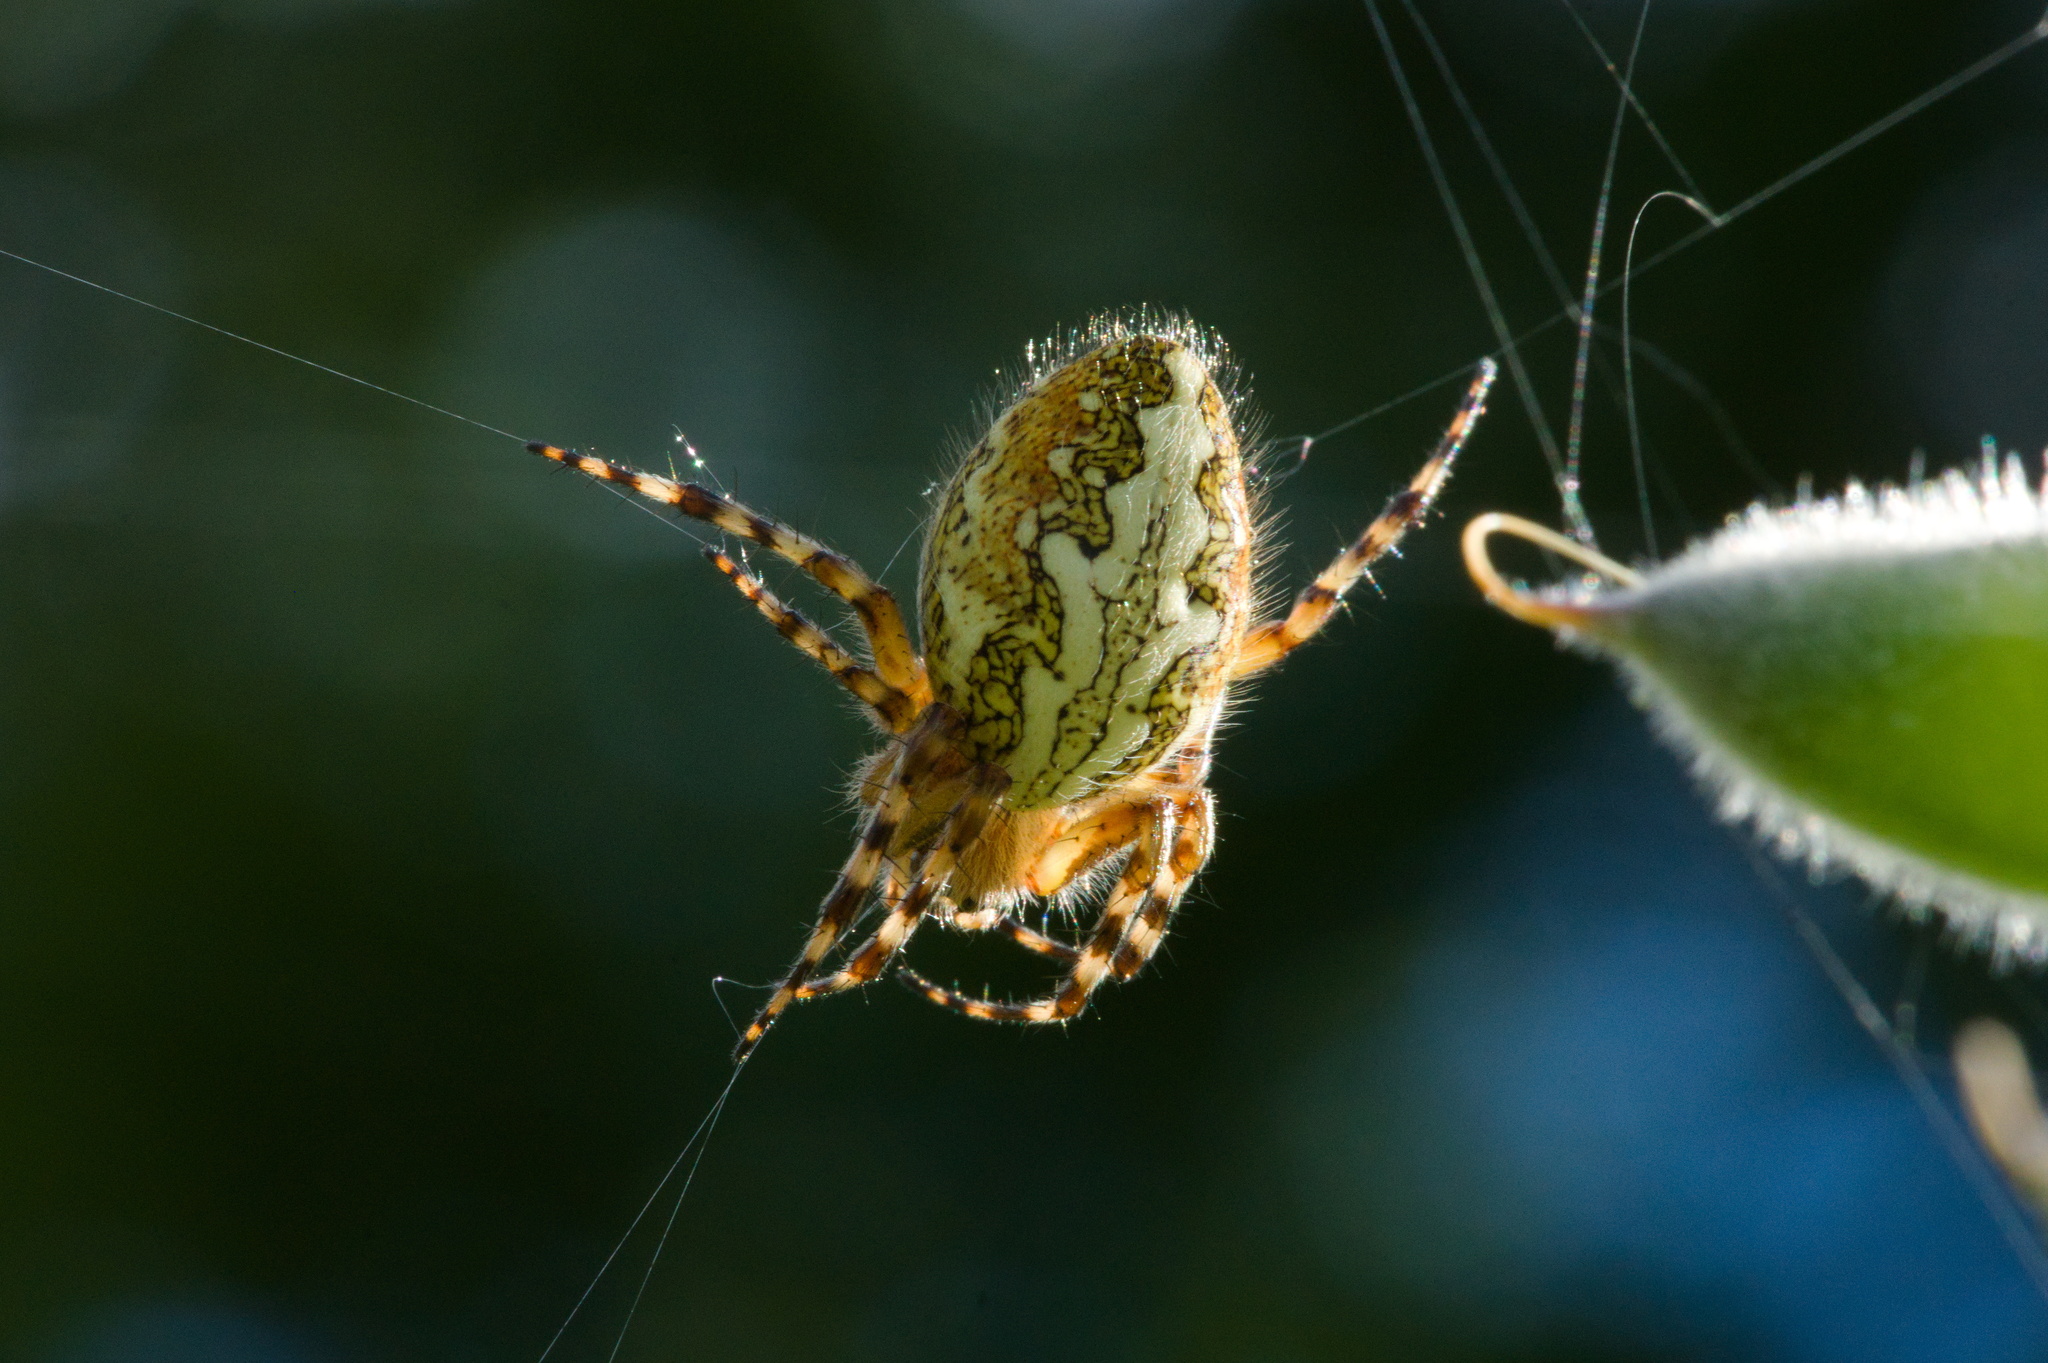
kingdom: Animalia
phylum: Arthropoda
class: Arachnida
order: Araneae
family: Araneidae
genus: Aculepeira
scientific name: Aculepeira ceropegia
